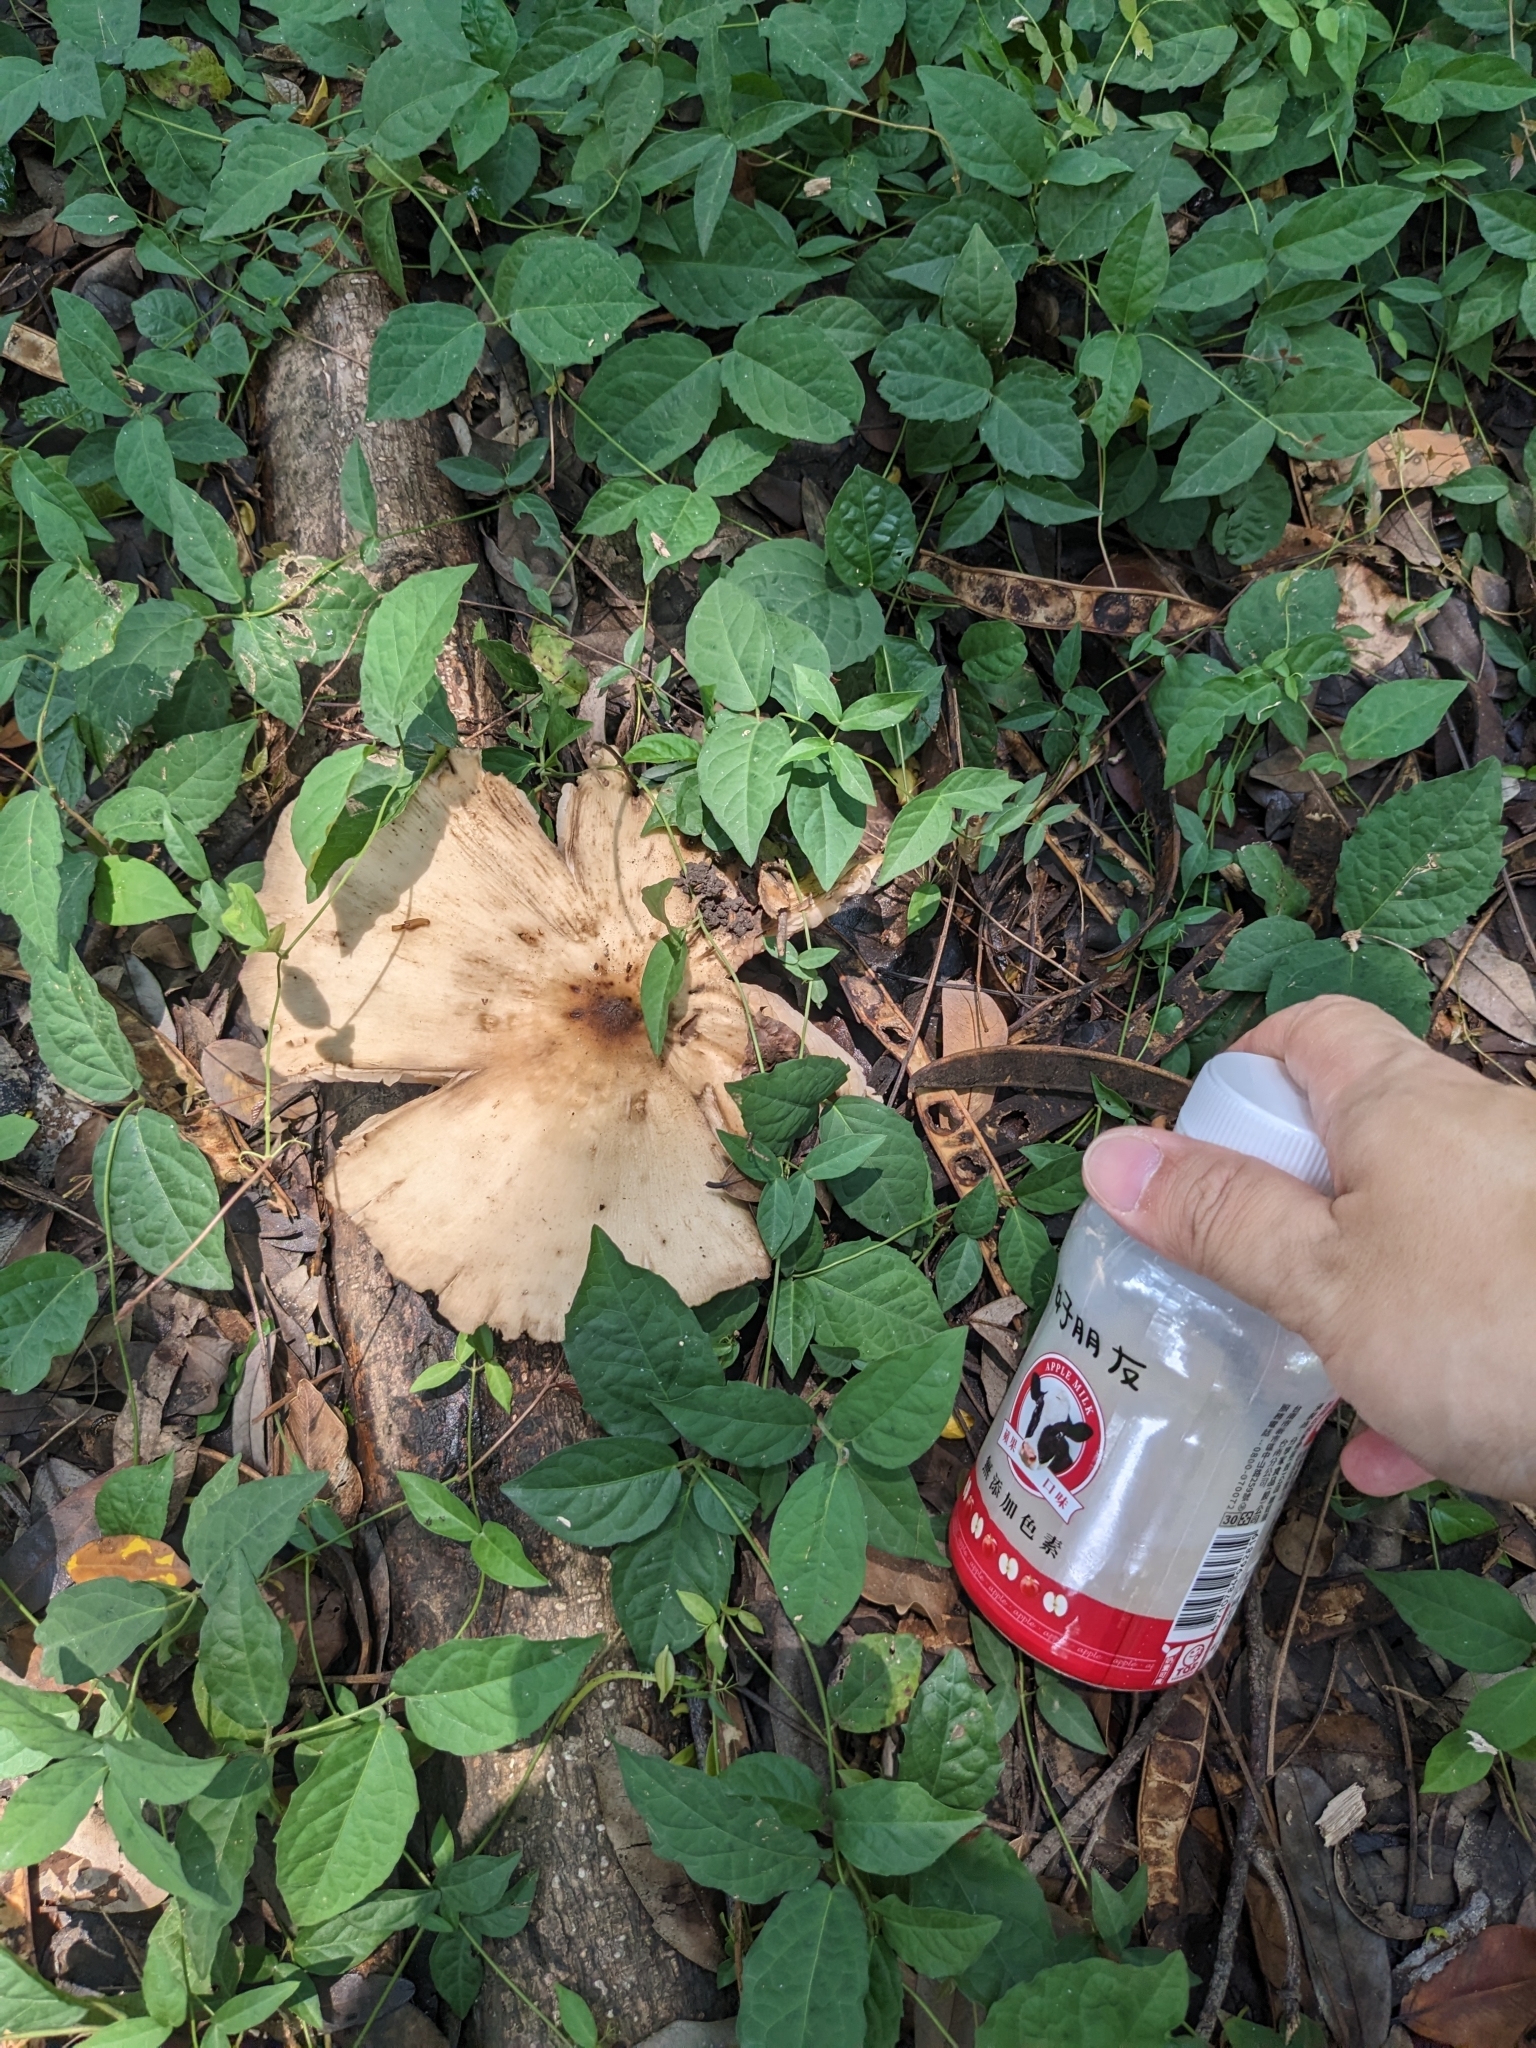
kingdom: Fungi
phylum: Basidiomycota
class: Agaricomycetes
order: Agaricales
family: Lyophyllaceae
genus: Termitomyces
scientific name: Termitomyces eurrhizus
